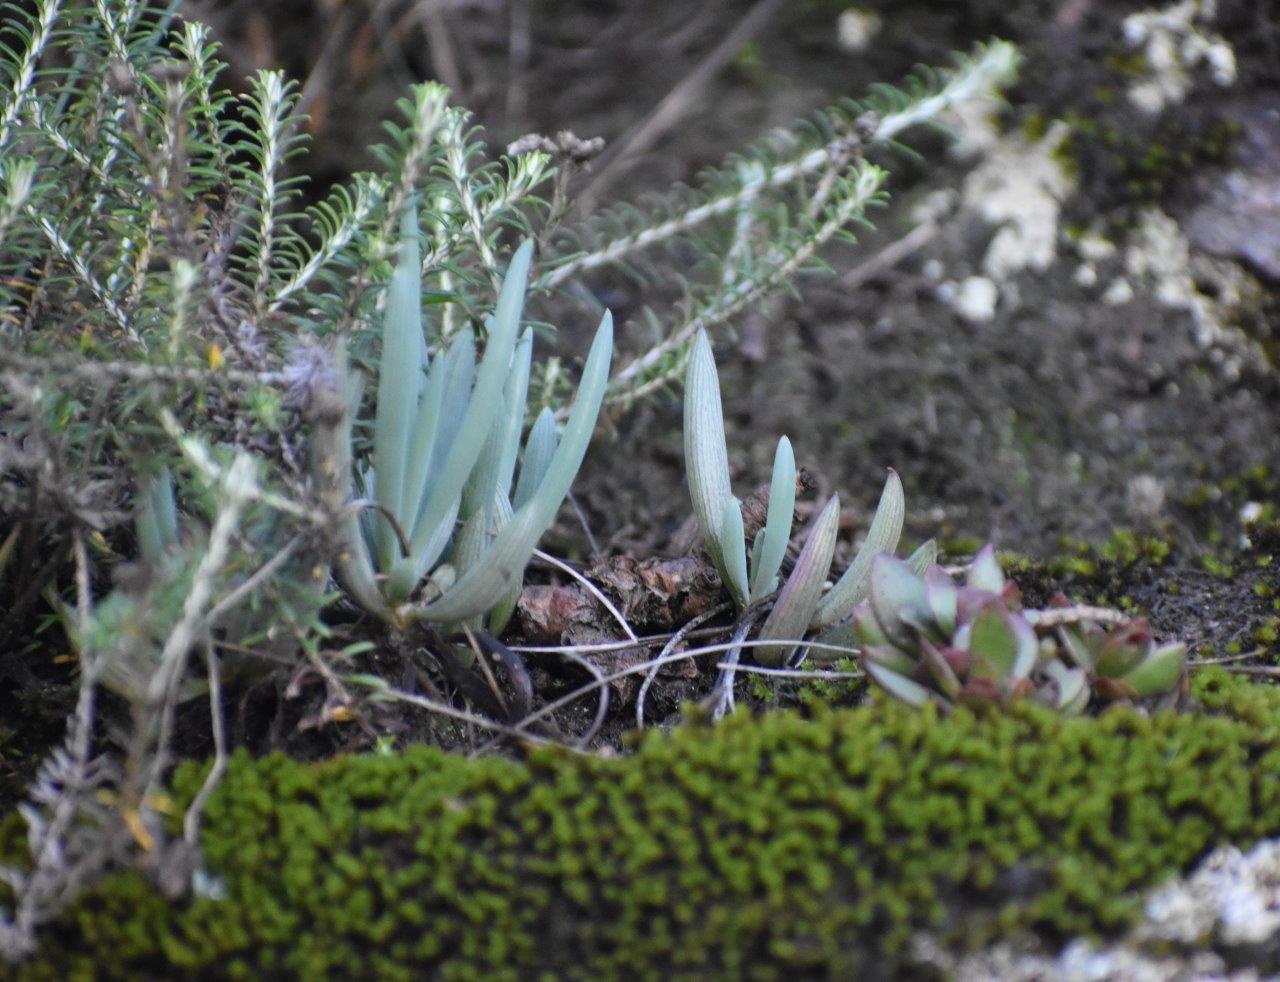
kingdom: Plantae
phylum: Tracheophyta
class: Magnoliopsida
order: Asterales
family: Asteraceae
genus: Curio
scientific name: Curio ficoides
